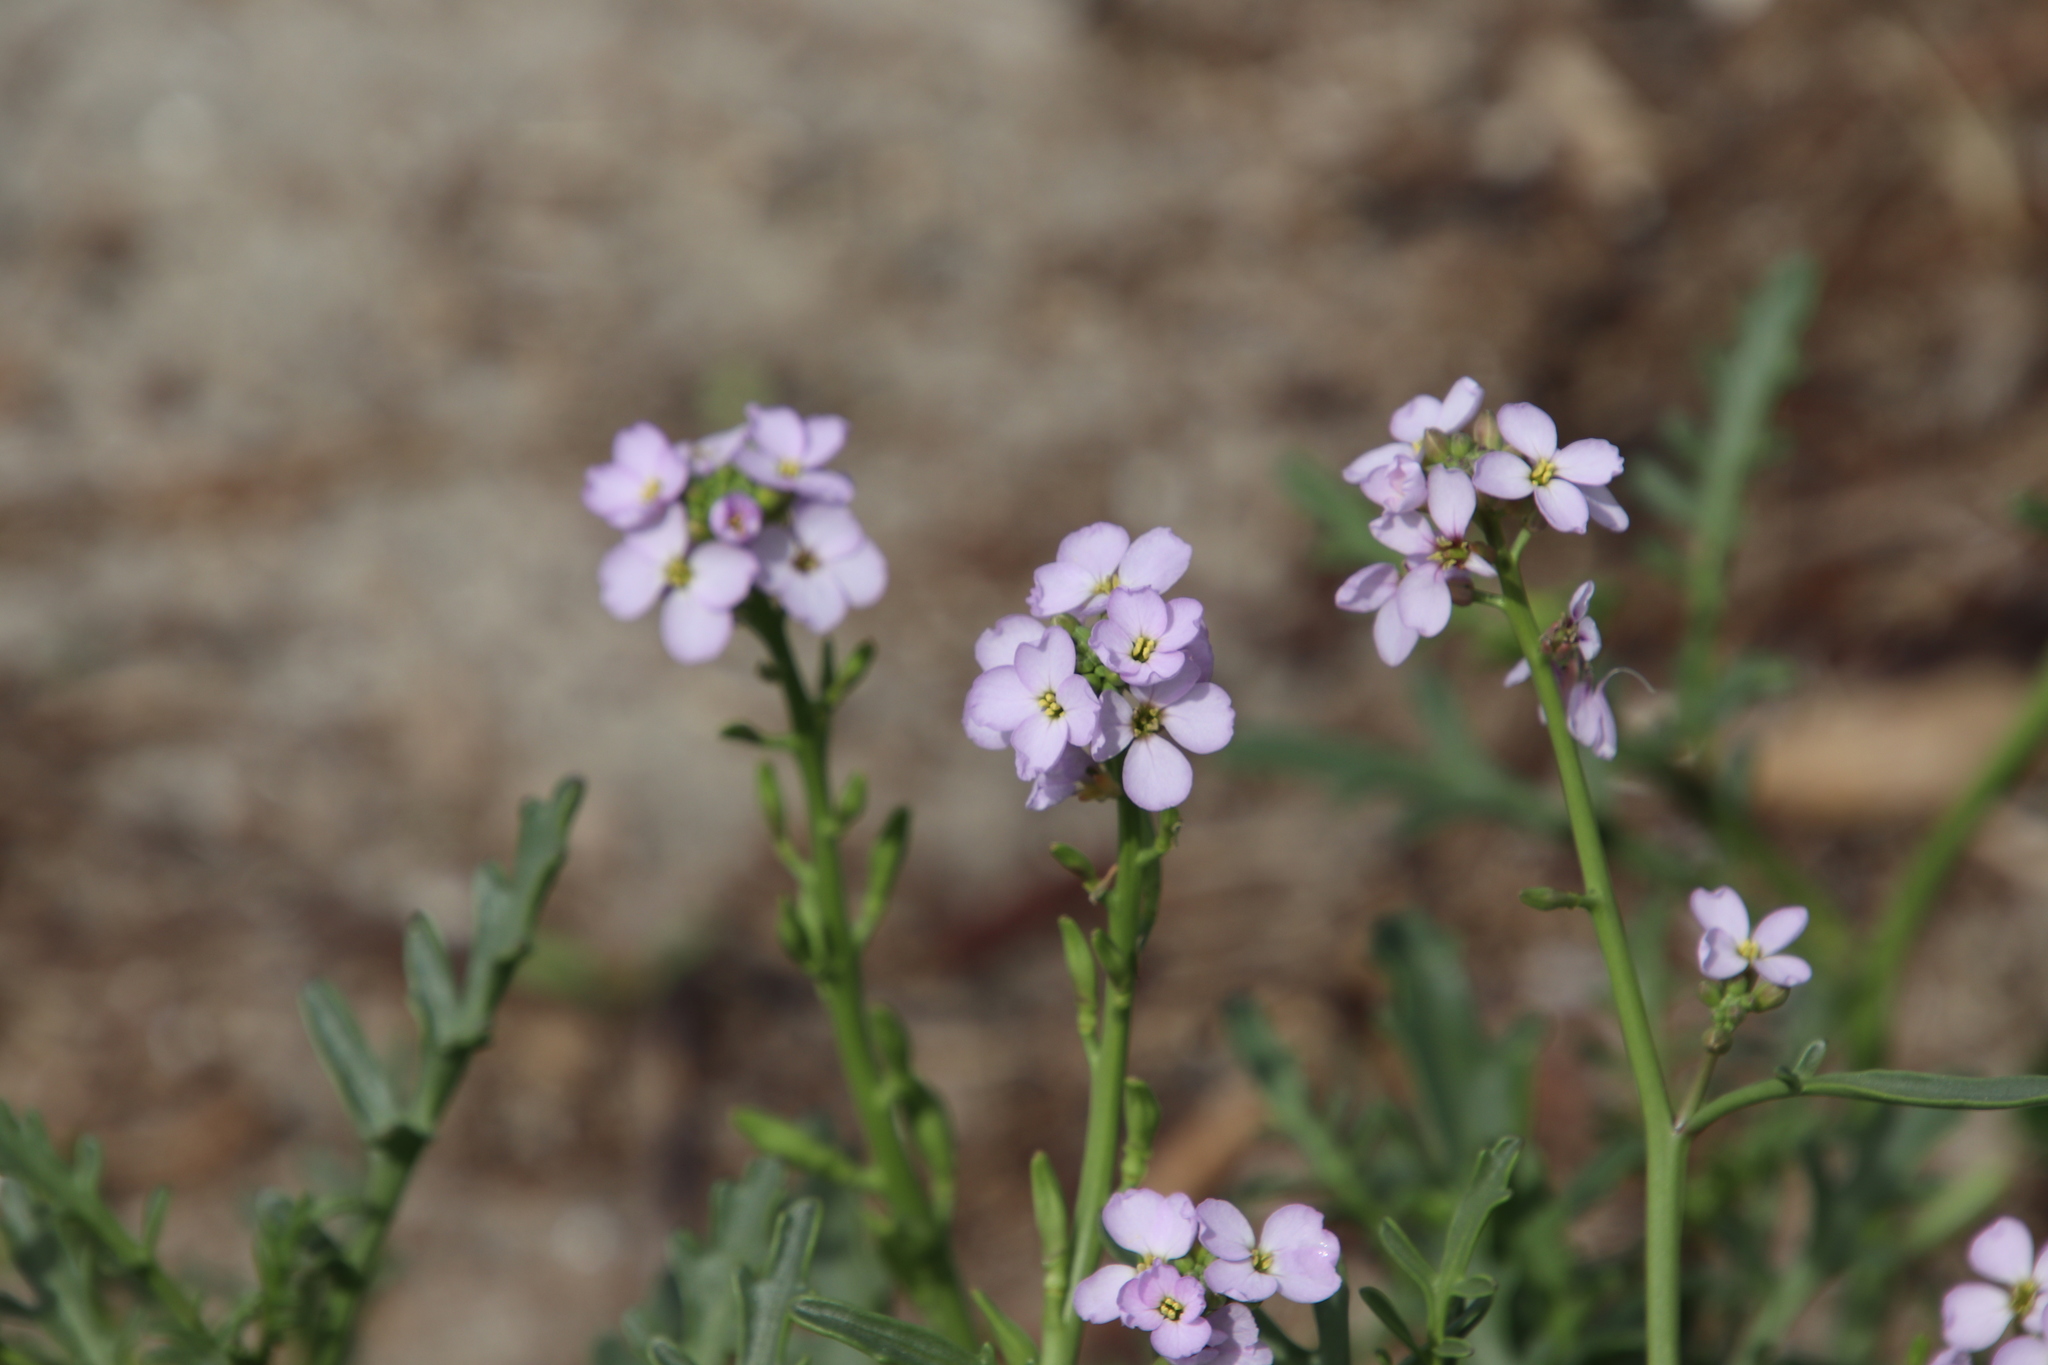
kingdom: Plantae
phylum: Tracheophyta
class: Magnoliopsida
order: Brassicales
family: Brassicaceae
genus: Cakile
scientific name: Cakile maritima
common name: Sea rocket
